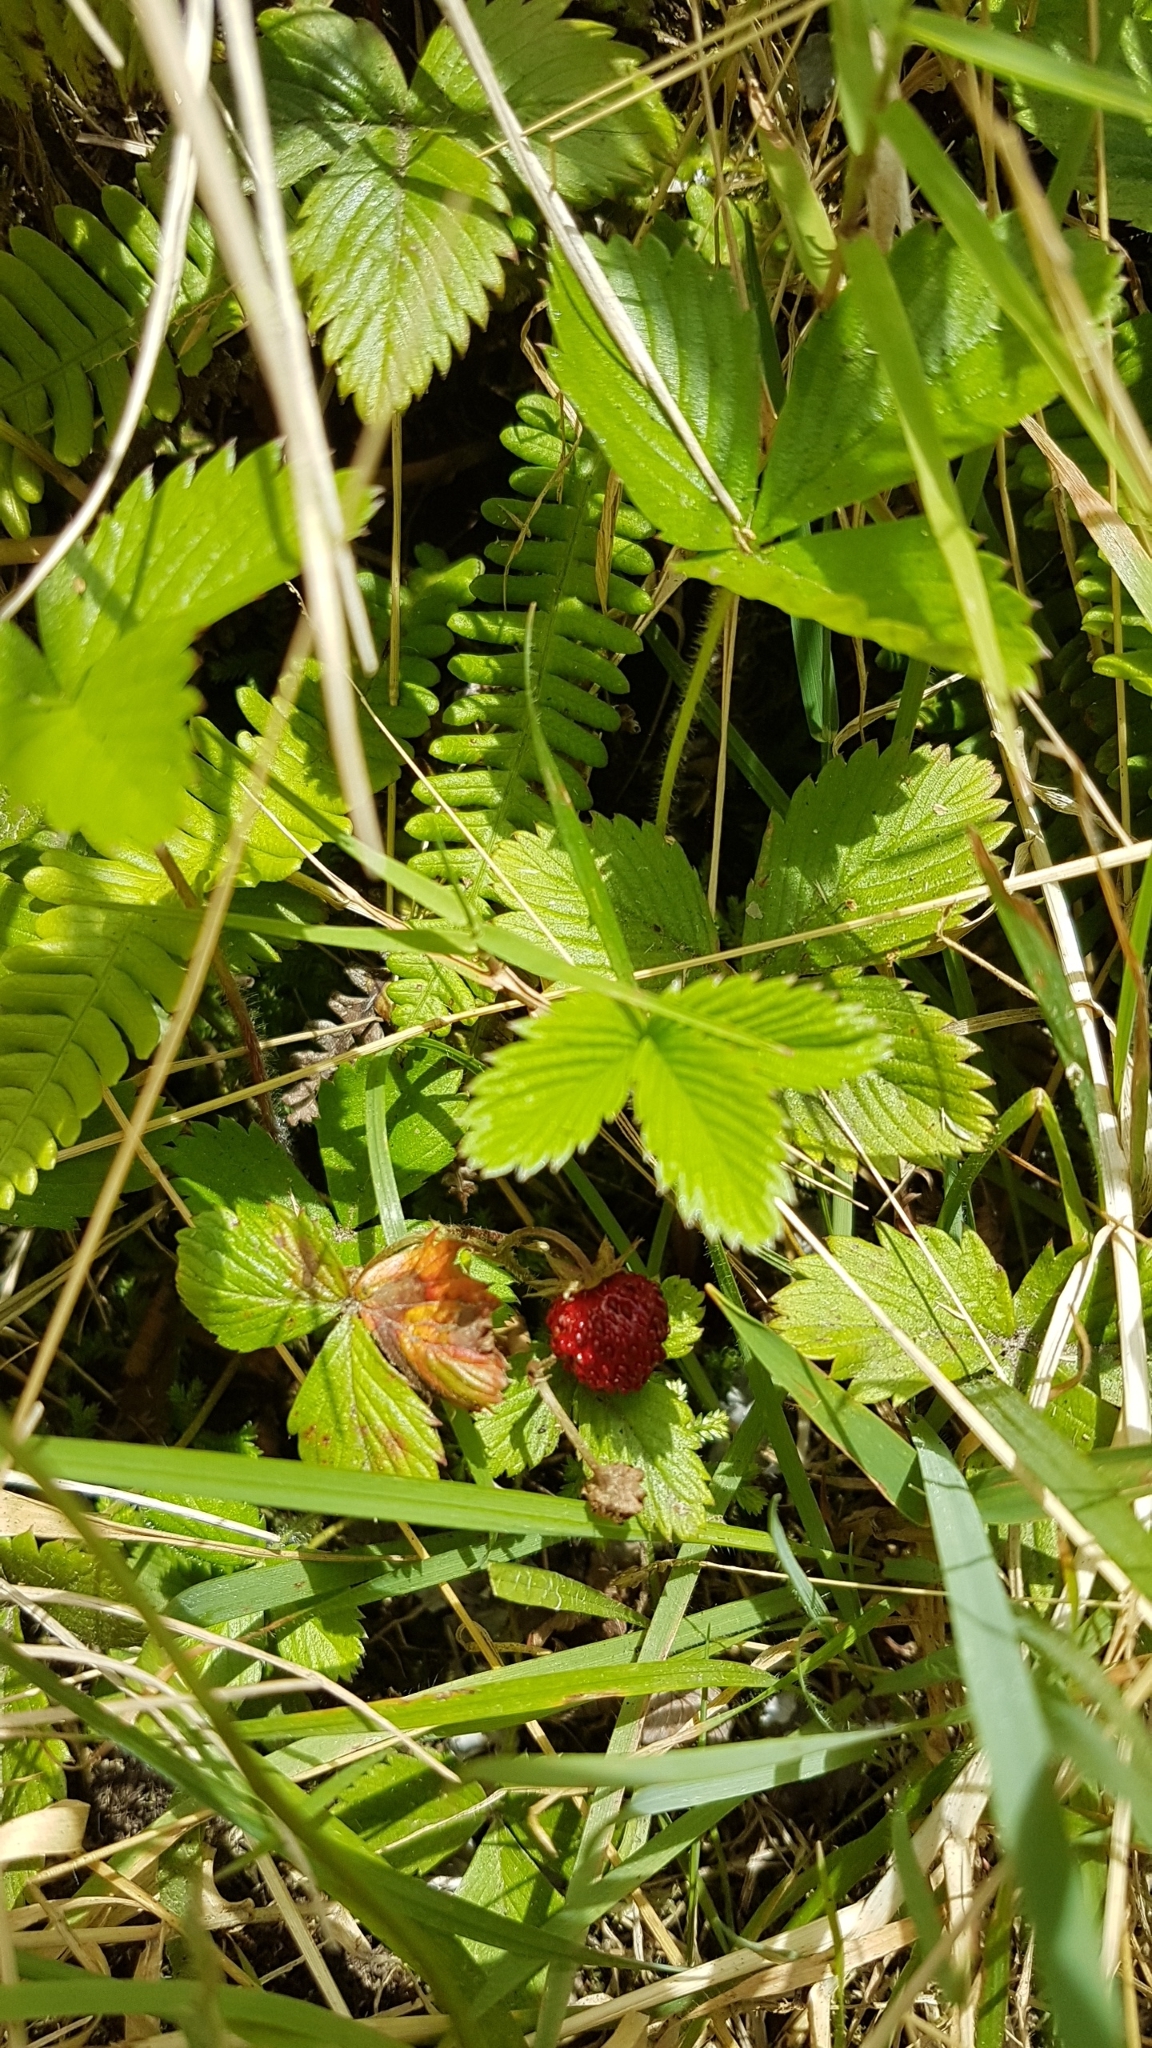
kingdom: Plantae
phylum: Tracheophyta
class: Magnoliopsida
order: Rosales
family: Rosaceae
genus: Fragaria
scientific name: Fragaria vesca
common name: Wild strawberry
